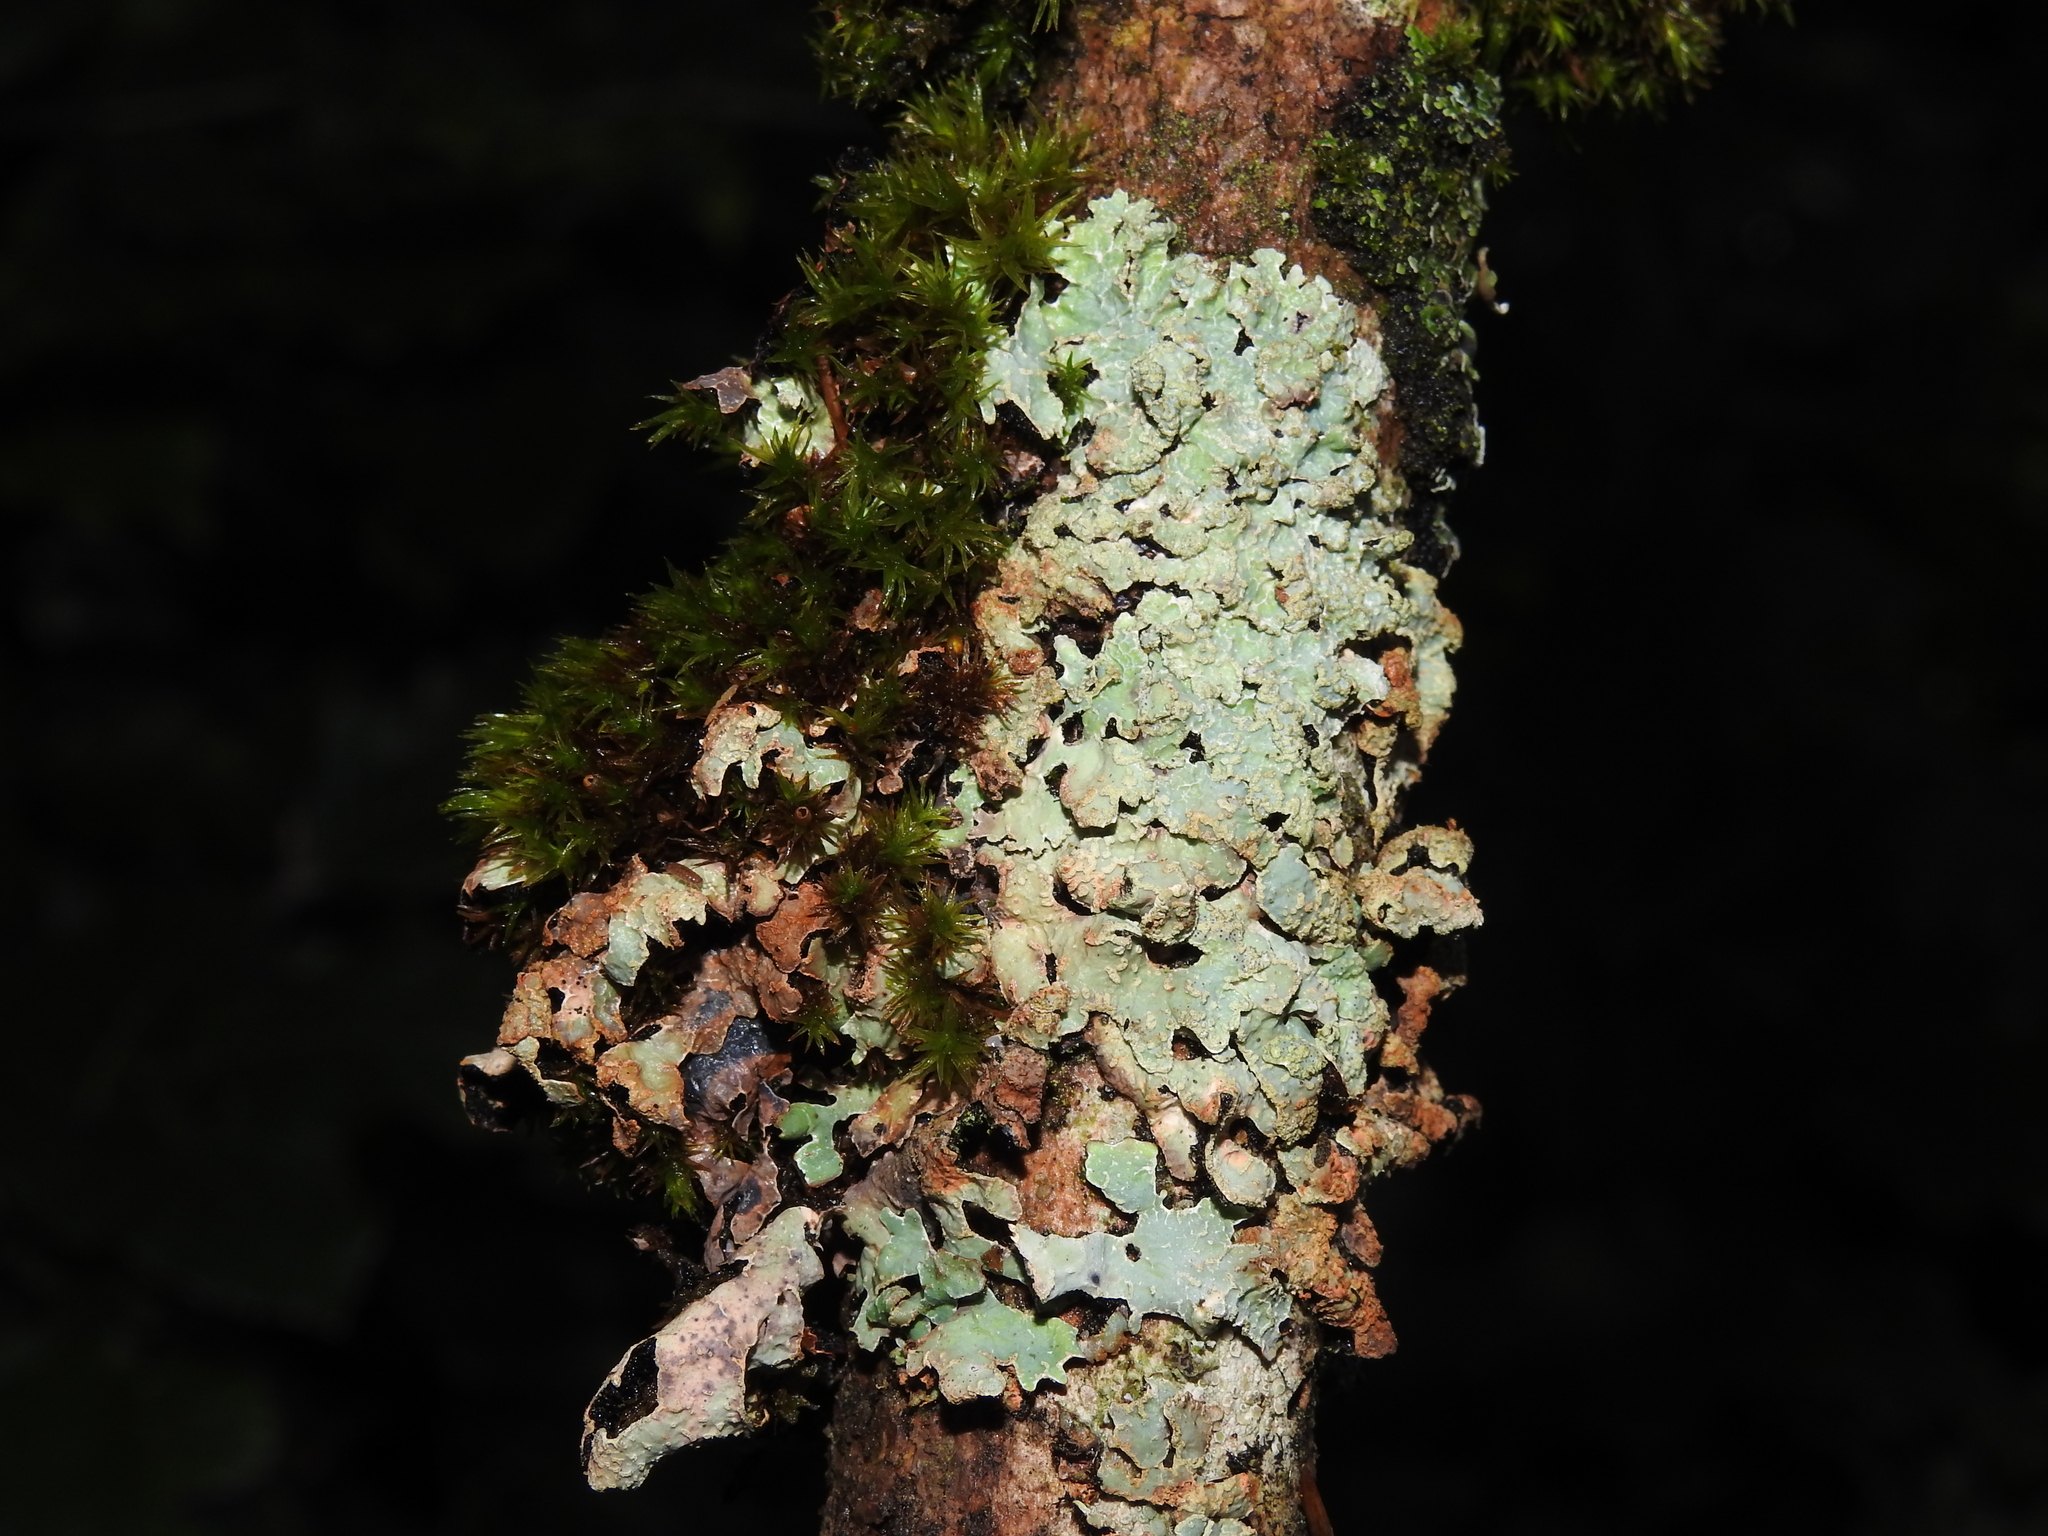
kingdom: Fungi
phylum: Ascomycota
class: Lecanoromycetes
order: Lecanorales
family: Parmeliaceae
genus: Parmelia
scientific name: Parmelia sulcata
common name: Netted shield lichen
